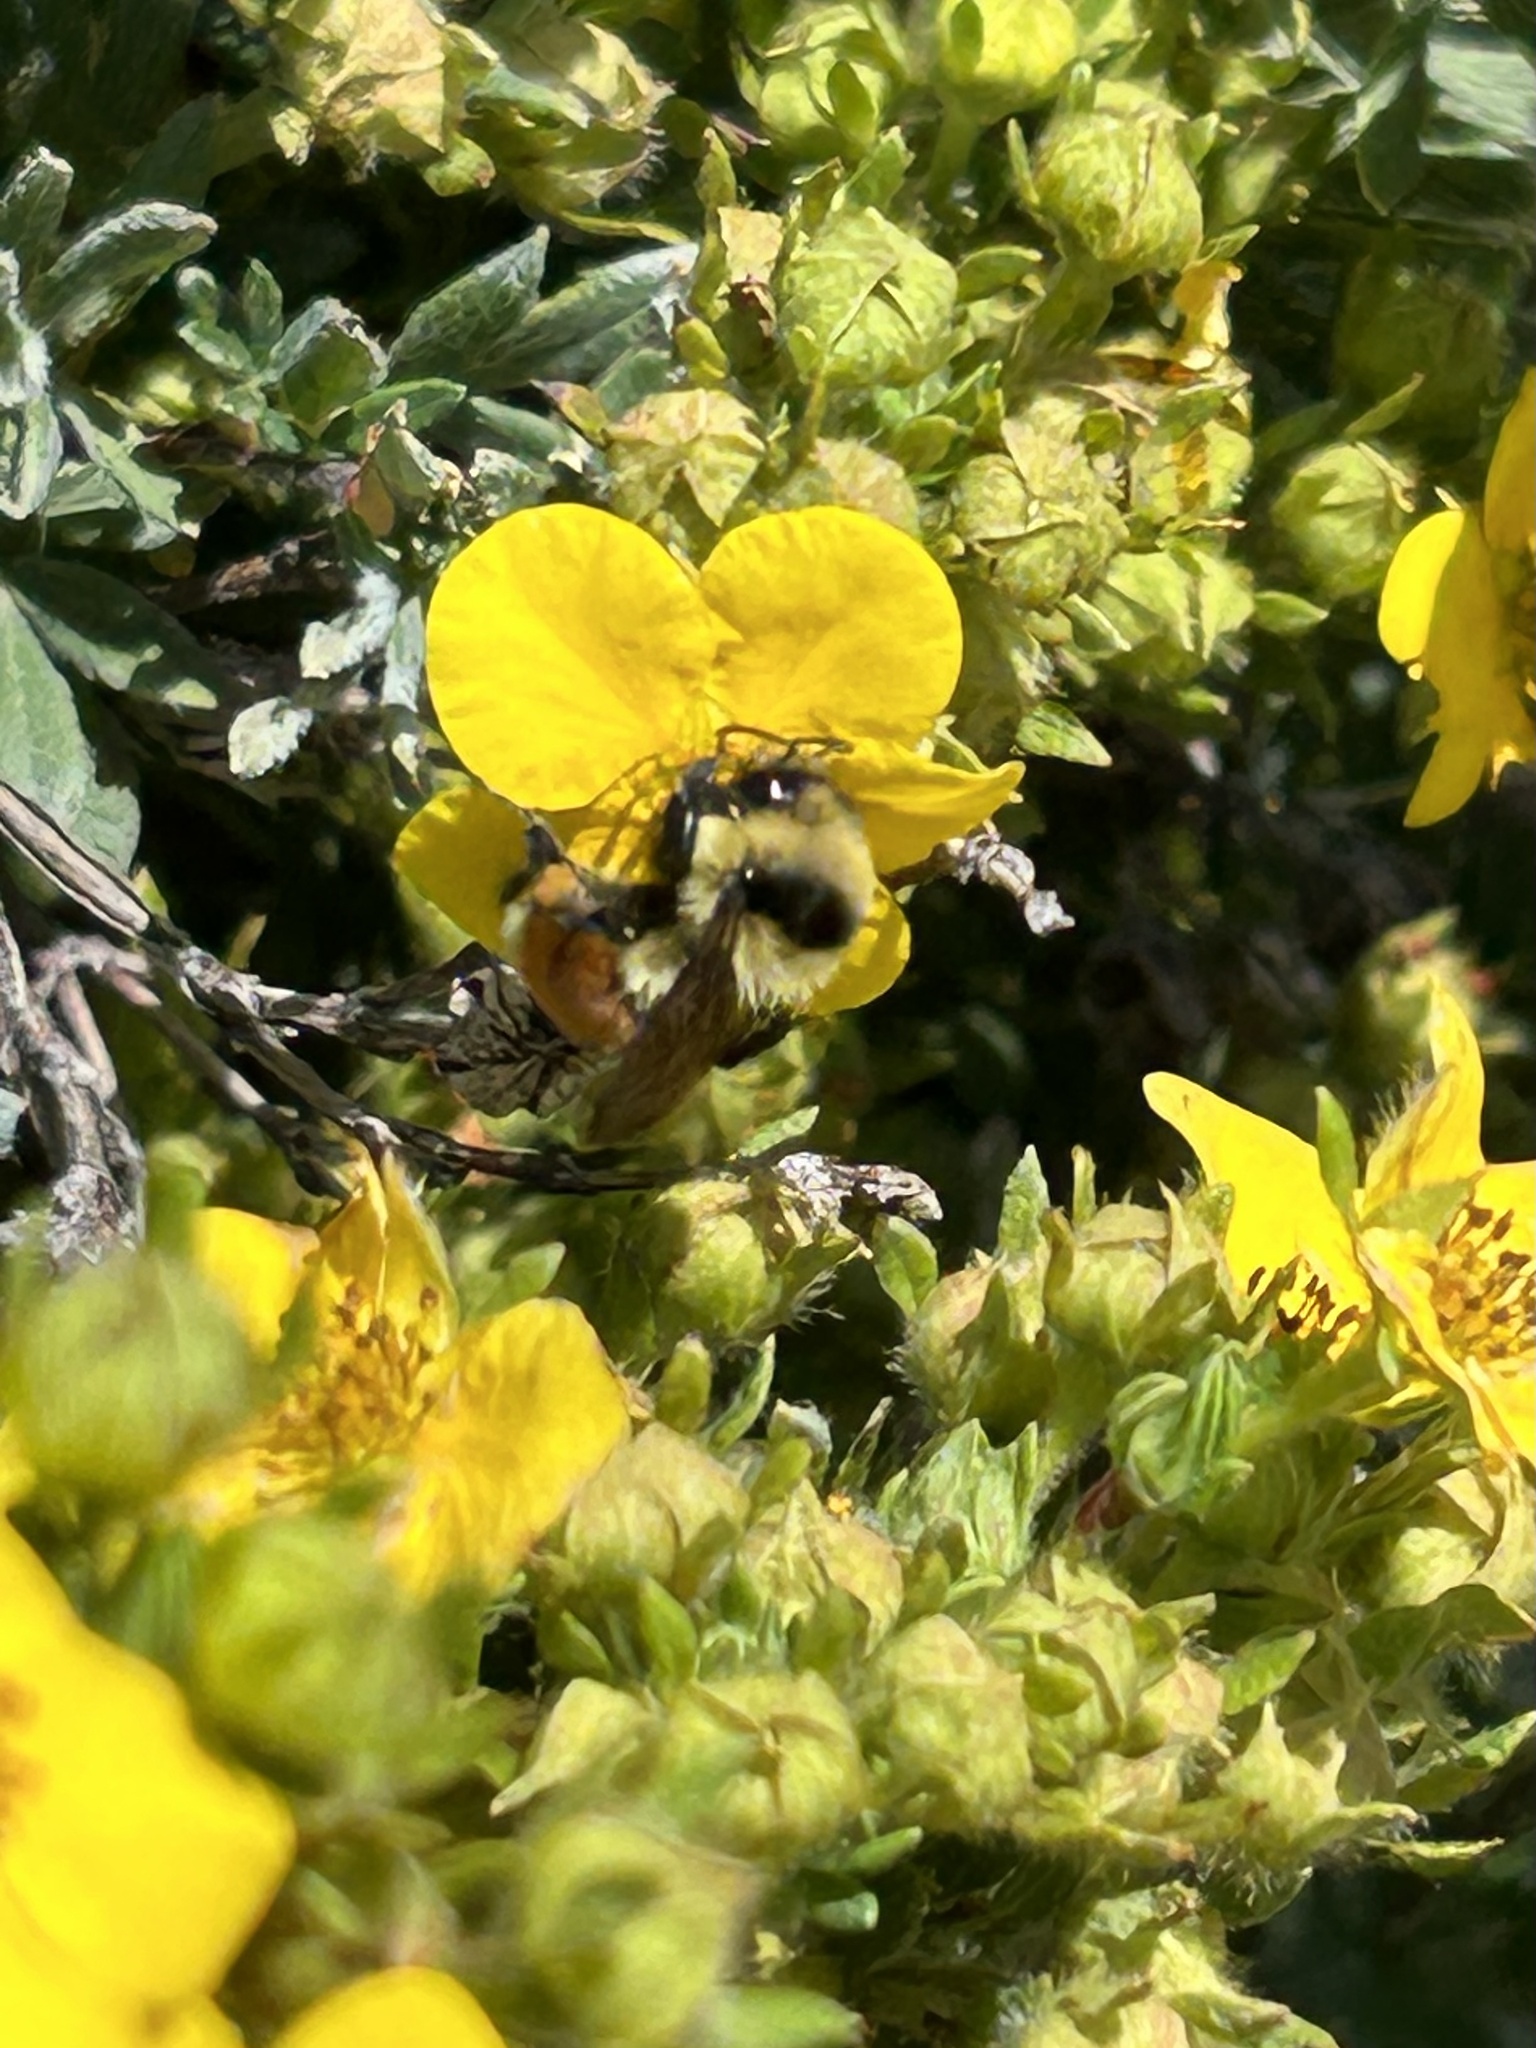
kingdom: Animalia
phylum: Arthropoda
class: Insecta
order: Hymenoptera
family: Apidae
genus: Bombus
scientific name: Bombus huntii
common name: Hunt bumble bee
